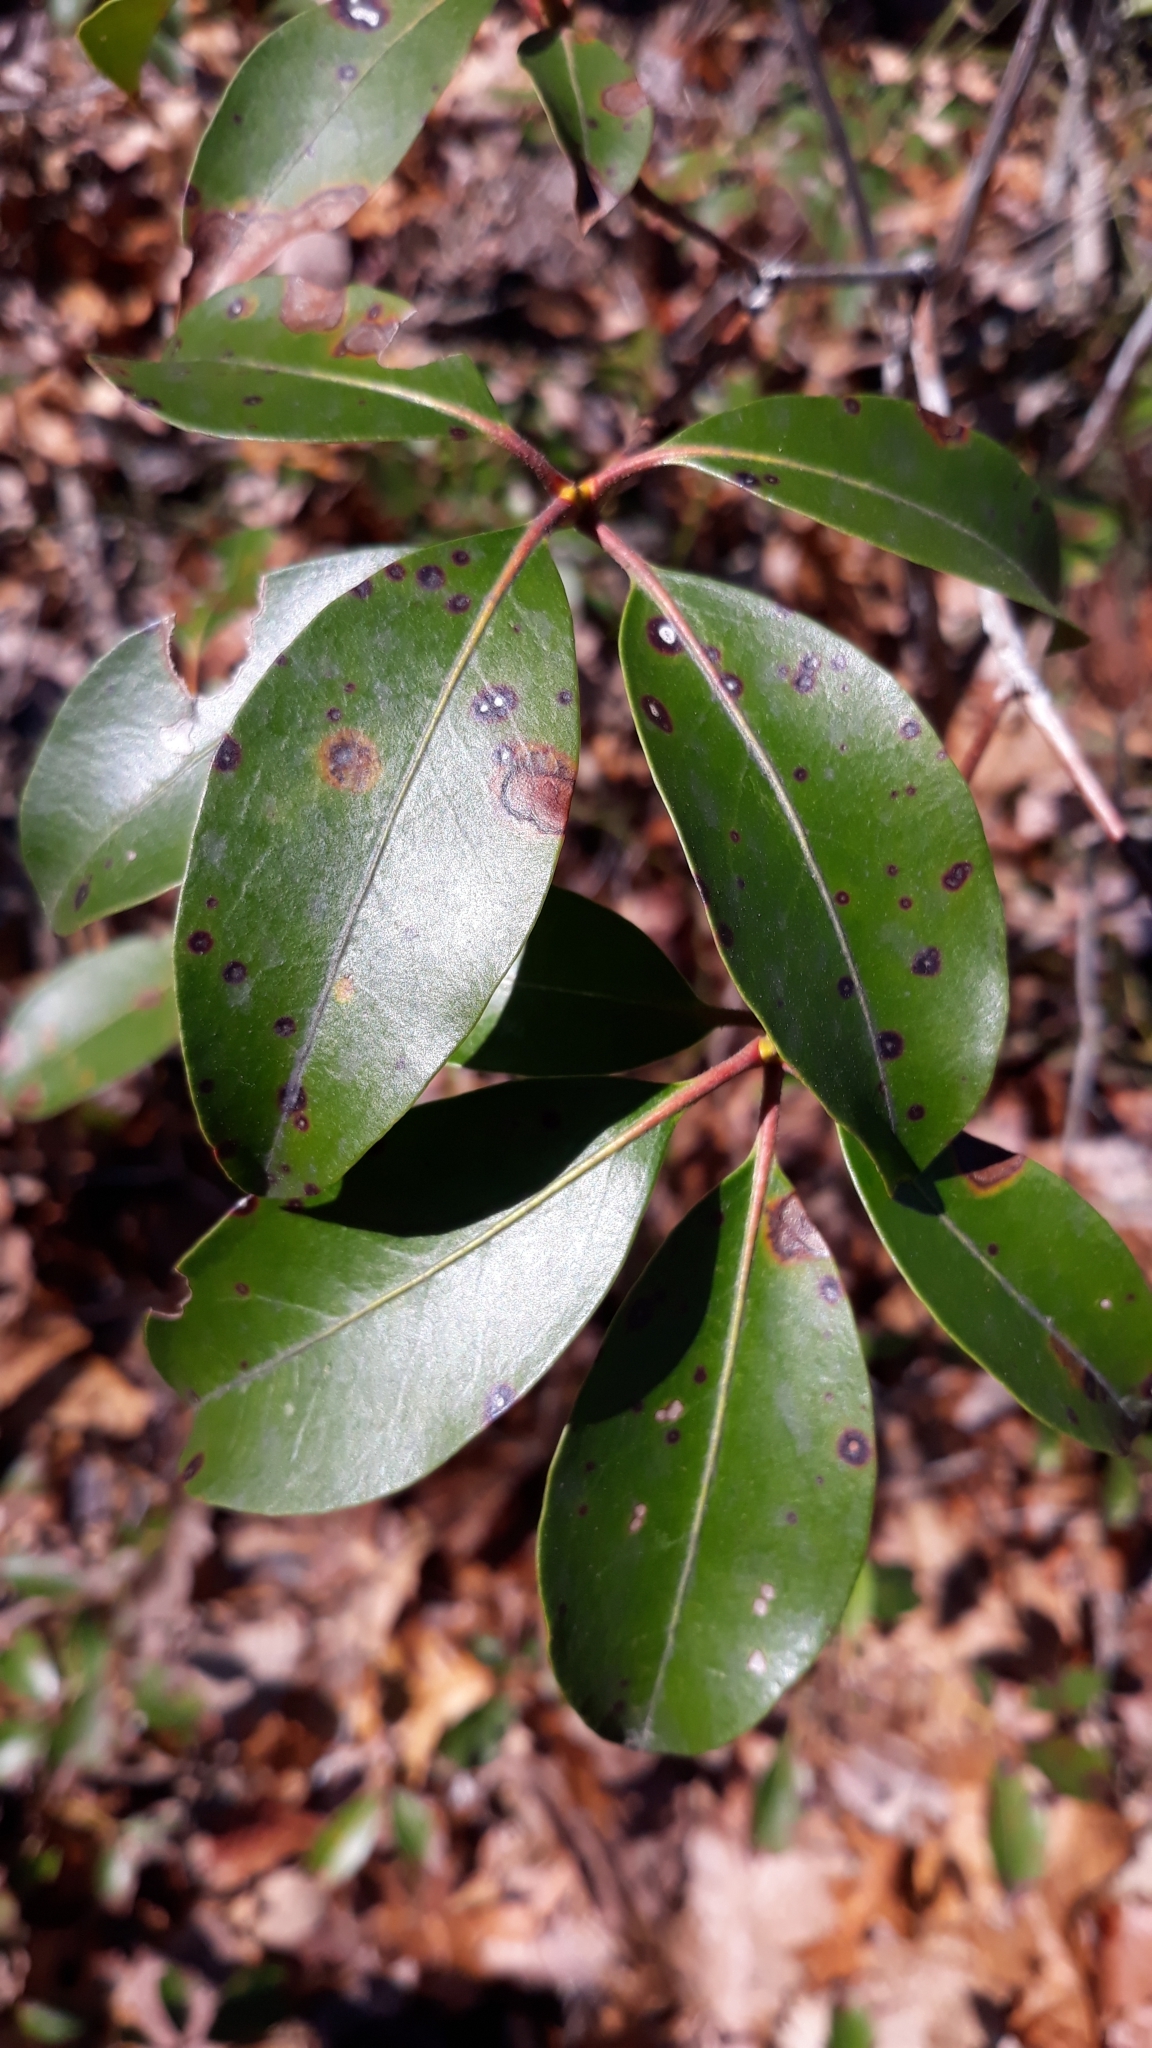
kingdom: Plantae
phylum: Tracheophyta
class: Magnoliopsida
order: Ericales
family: Ericaceae
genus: Kalmia
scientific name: Kalmia latifolia
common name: Mountain-laurel
